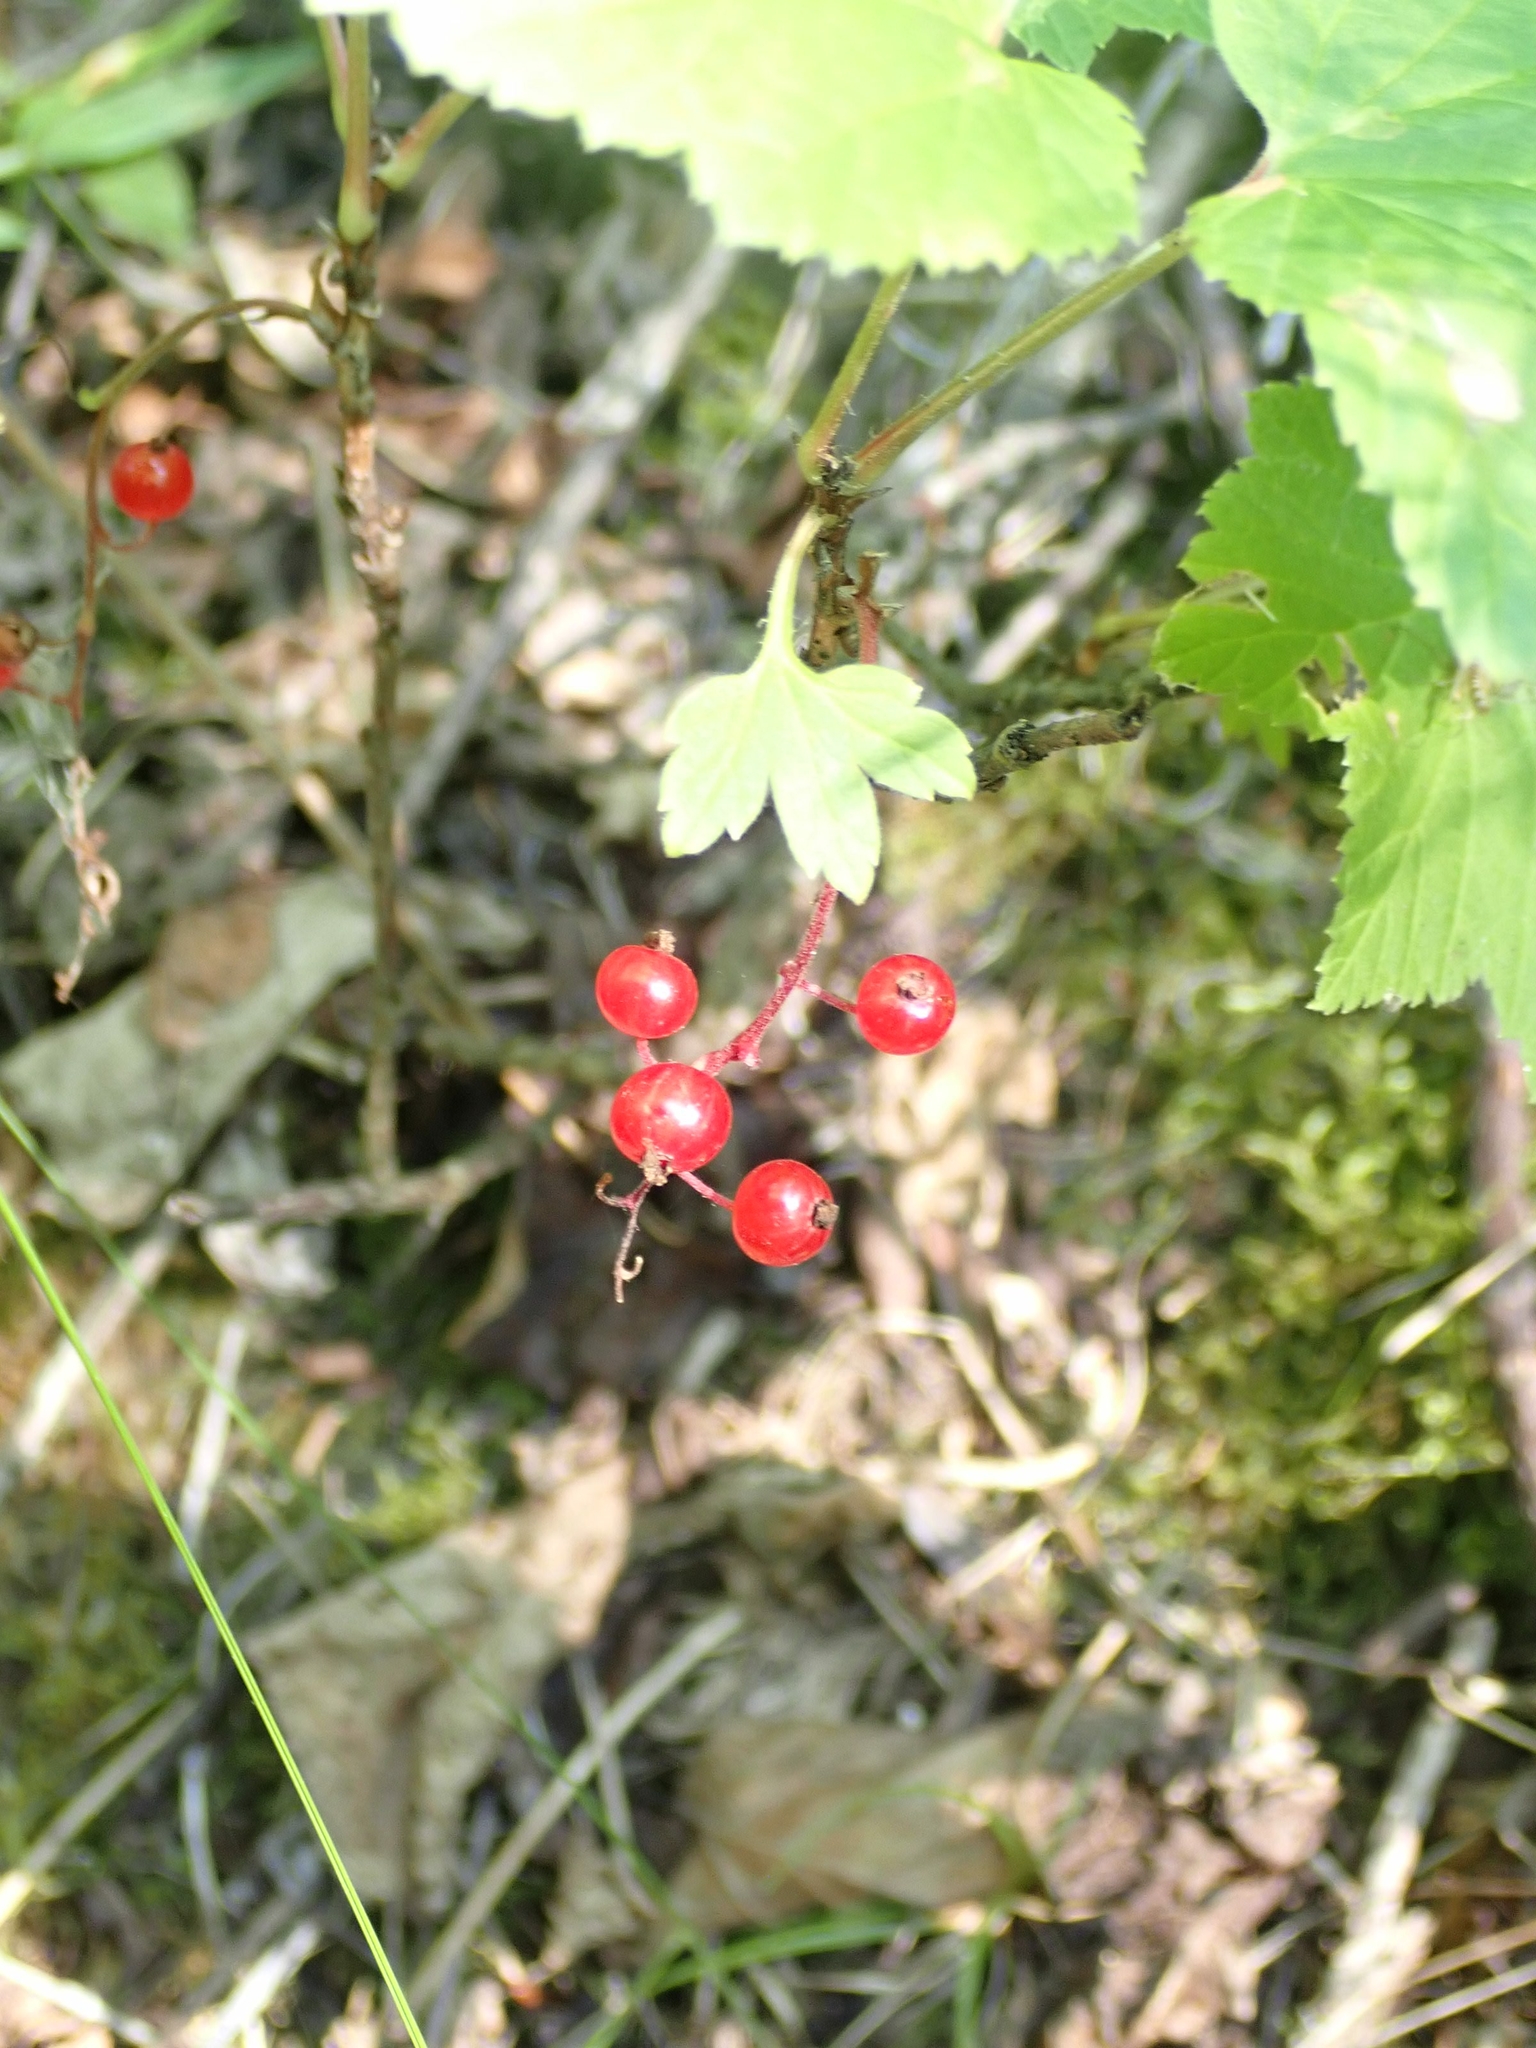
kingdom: Plantae
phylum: Tracheophyta
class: Magnoliopsida
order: Saxifragales
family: Grossulariaceae
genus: Ribes
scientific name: Ribes triste
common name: Swamp red currant
